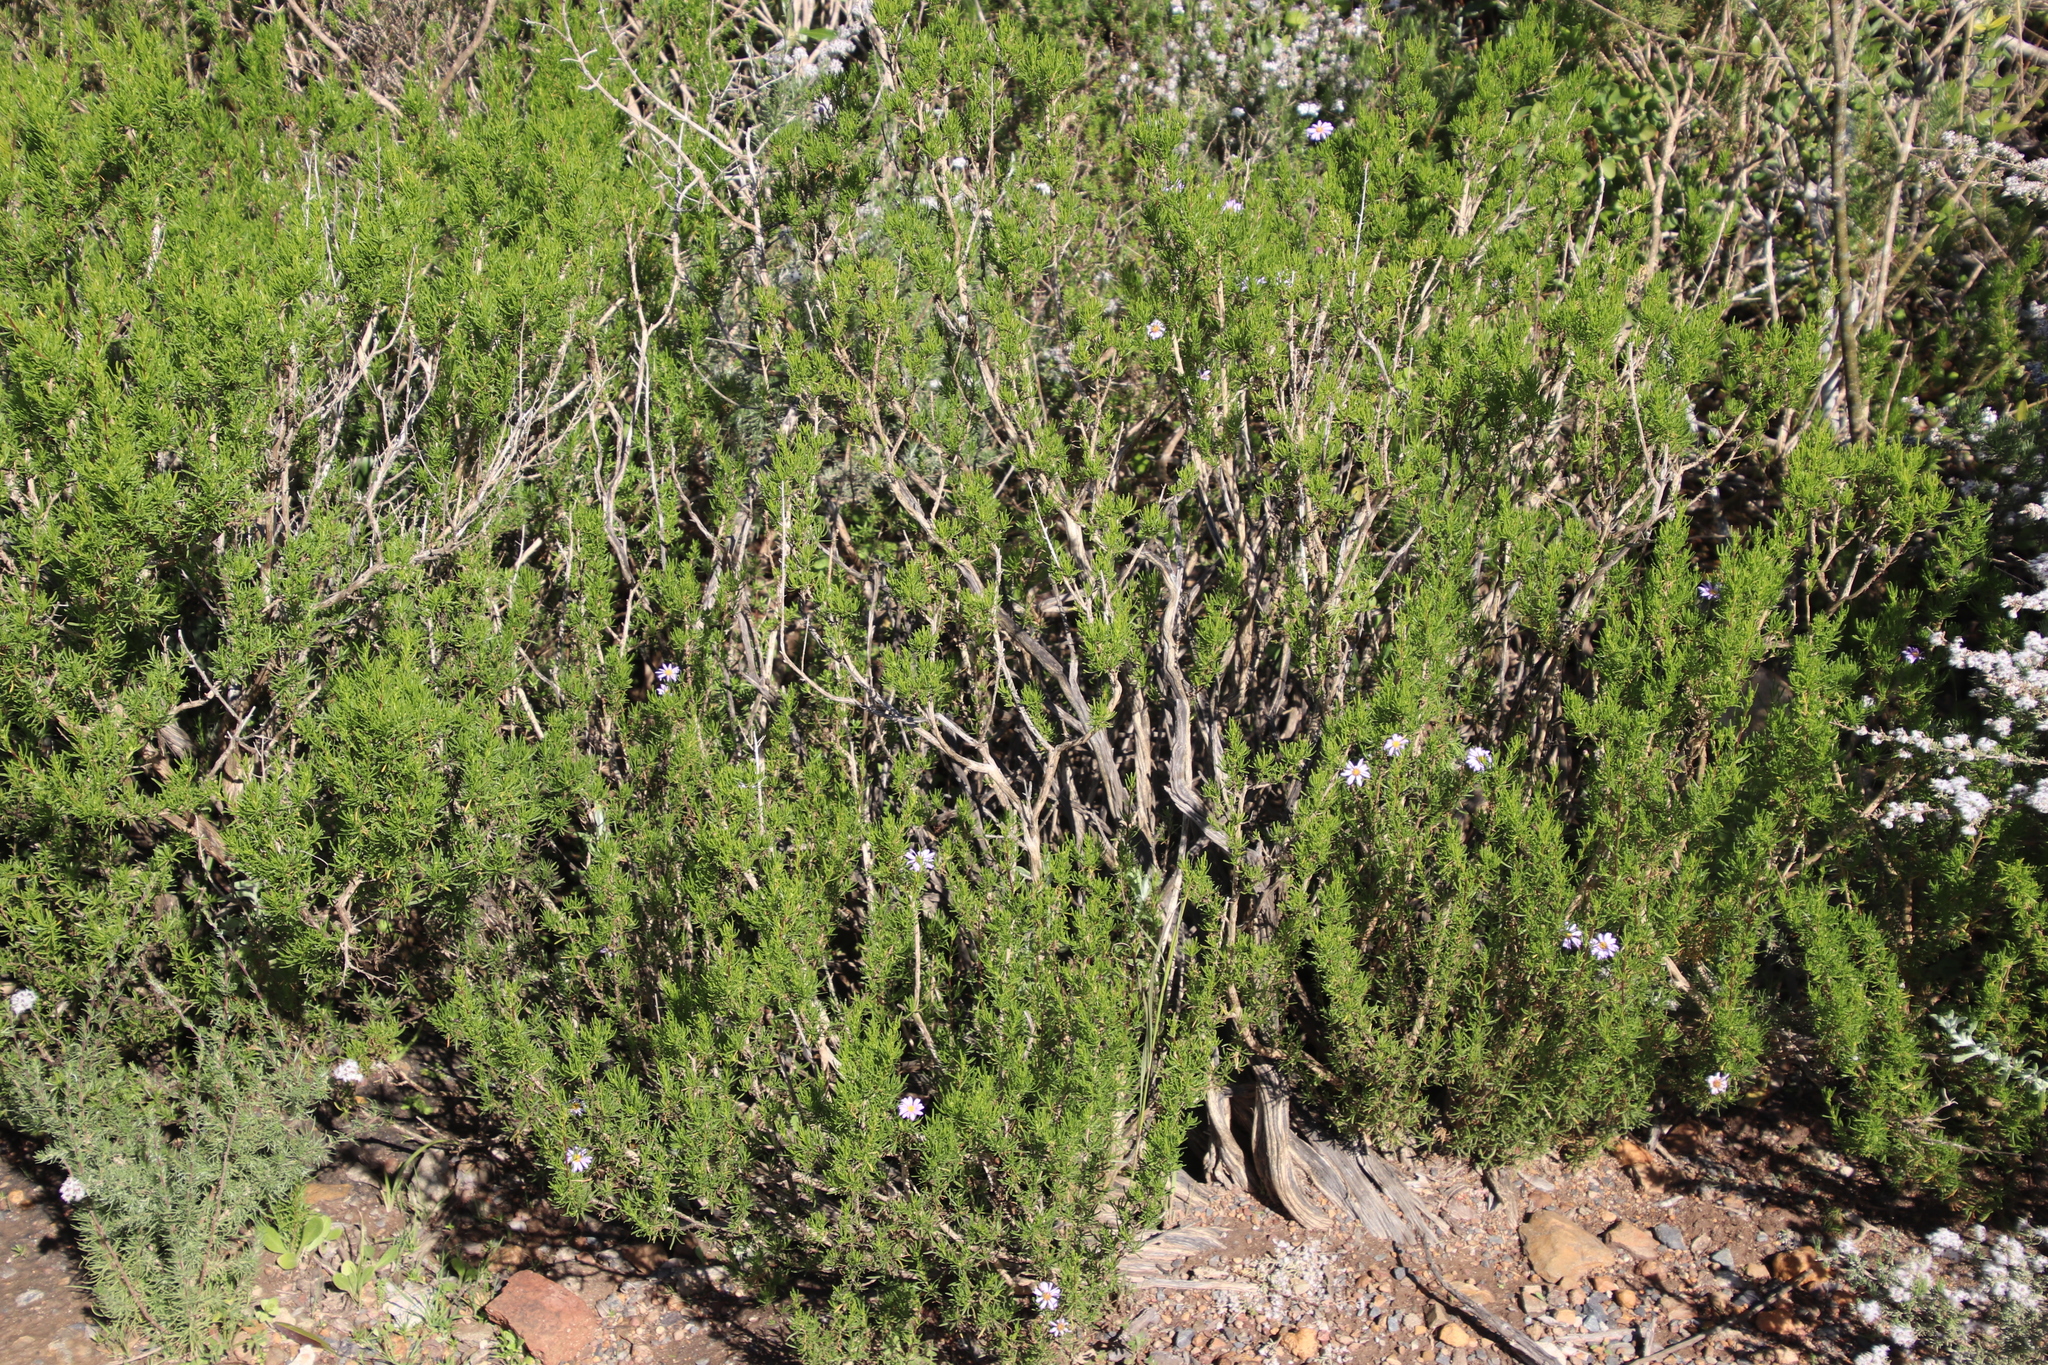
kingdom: Plantae
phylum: Tracheophyta
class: Magnoliopsida
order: Asterales
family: Asteraceae
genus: Felicia
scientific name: Felicia fruticosa
